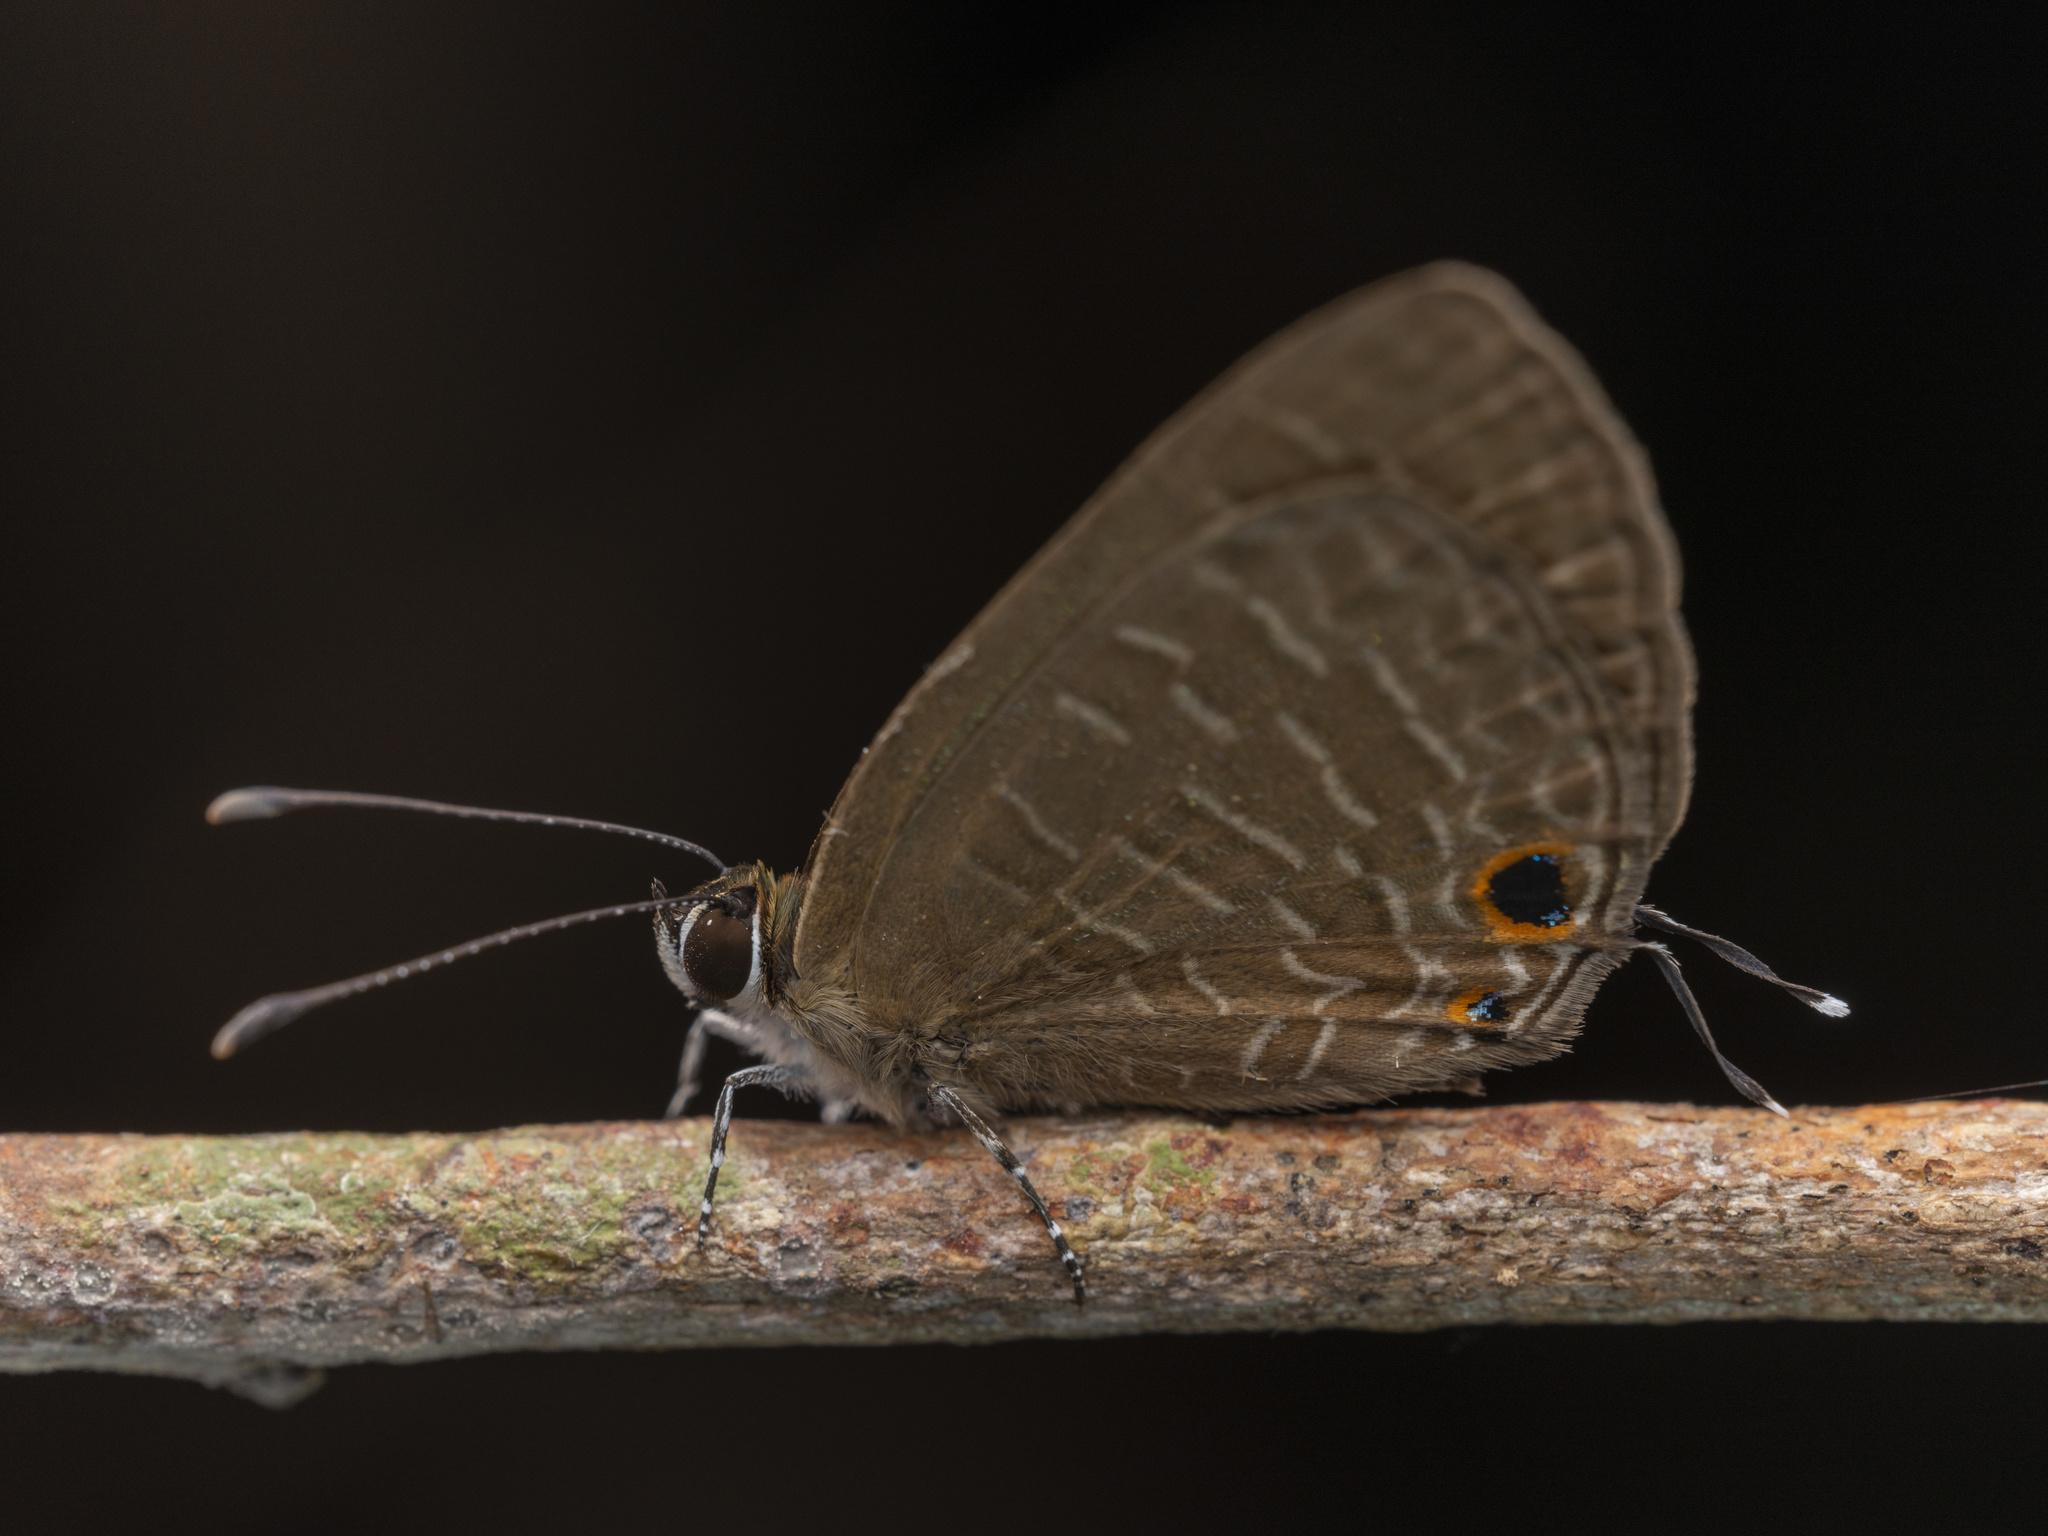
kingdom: Animalia
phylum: Arthropoda
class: Insecta
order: Lepidoptera
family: Lycaenidae
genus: Jamides
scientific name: Jamides bochus
